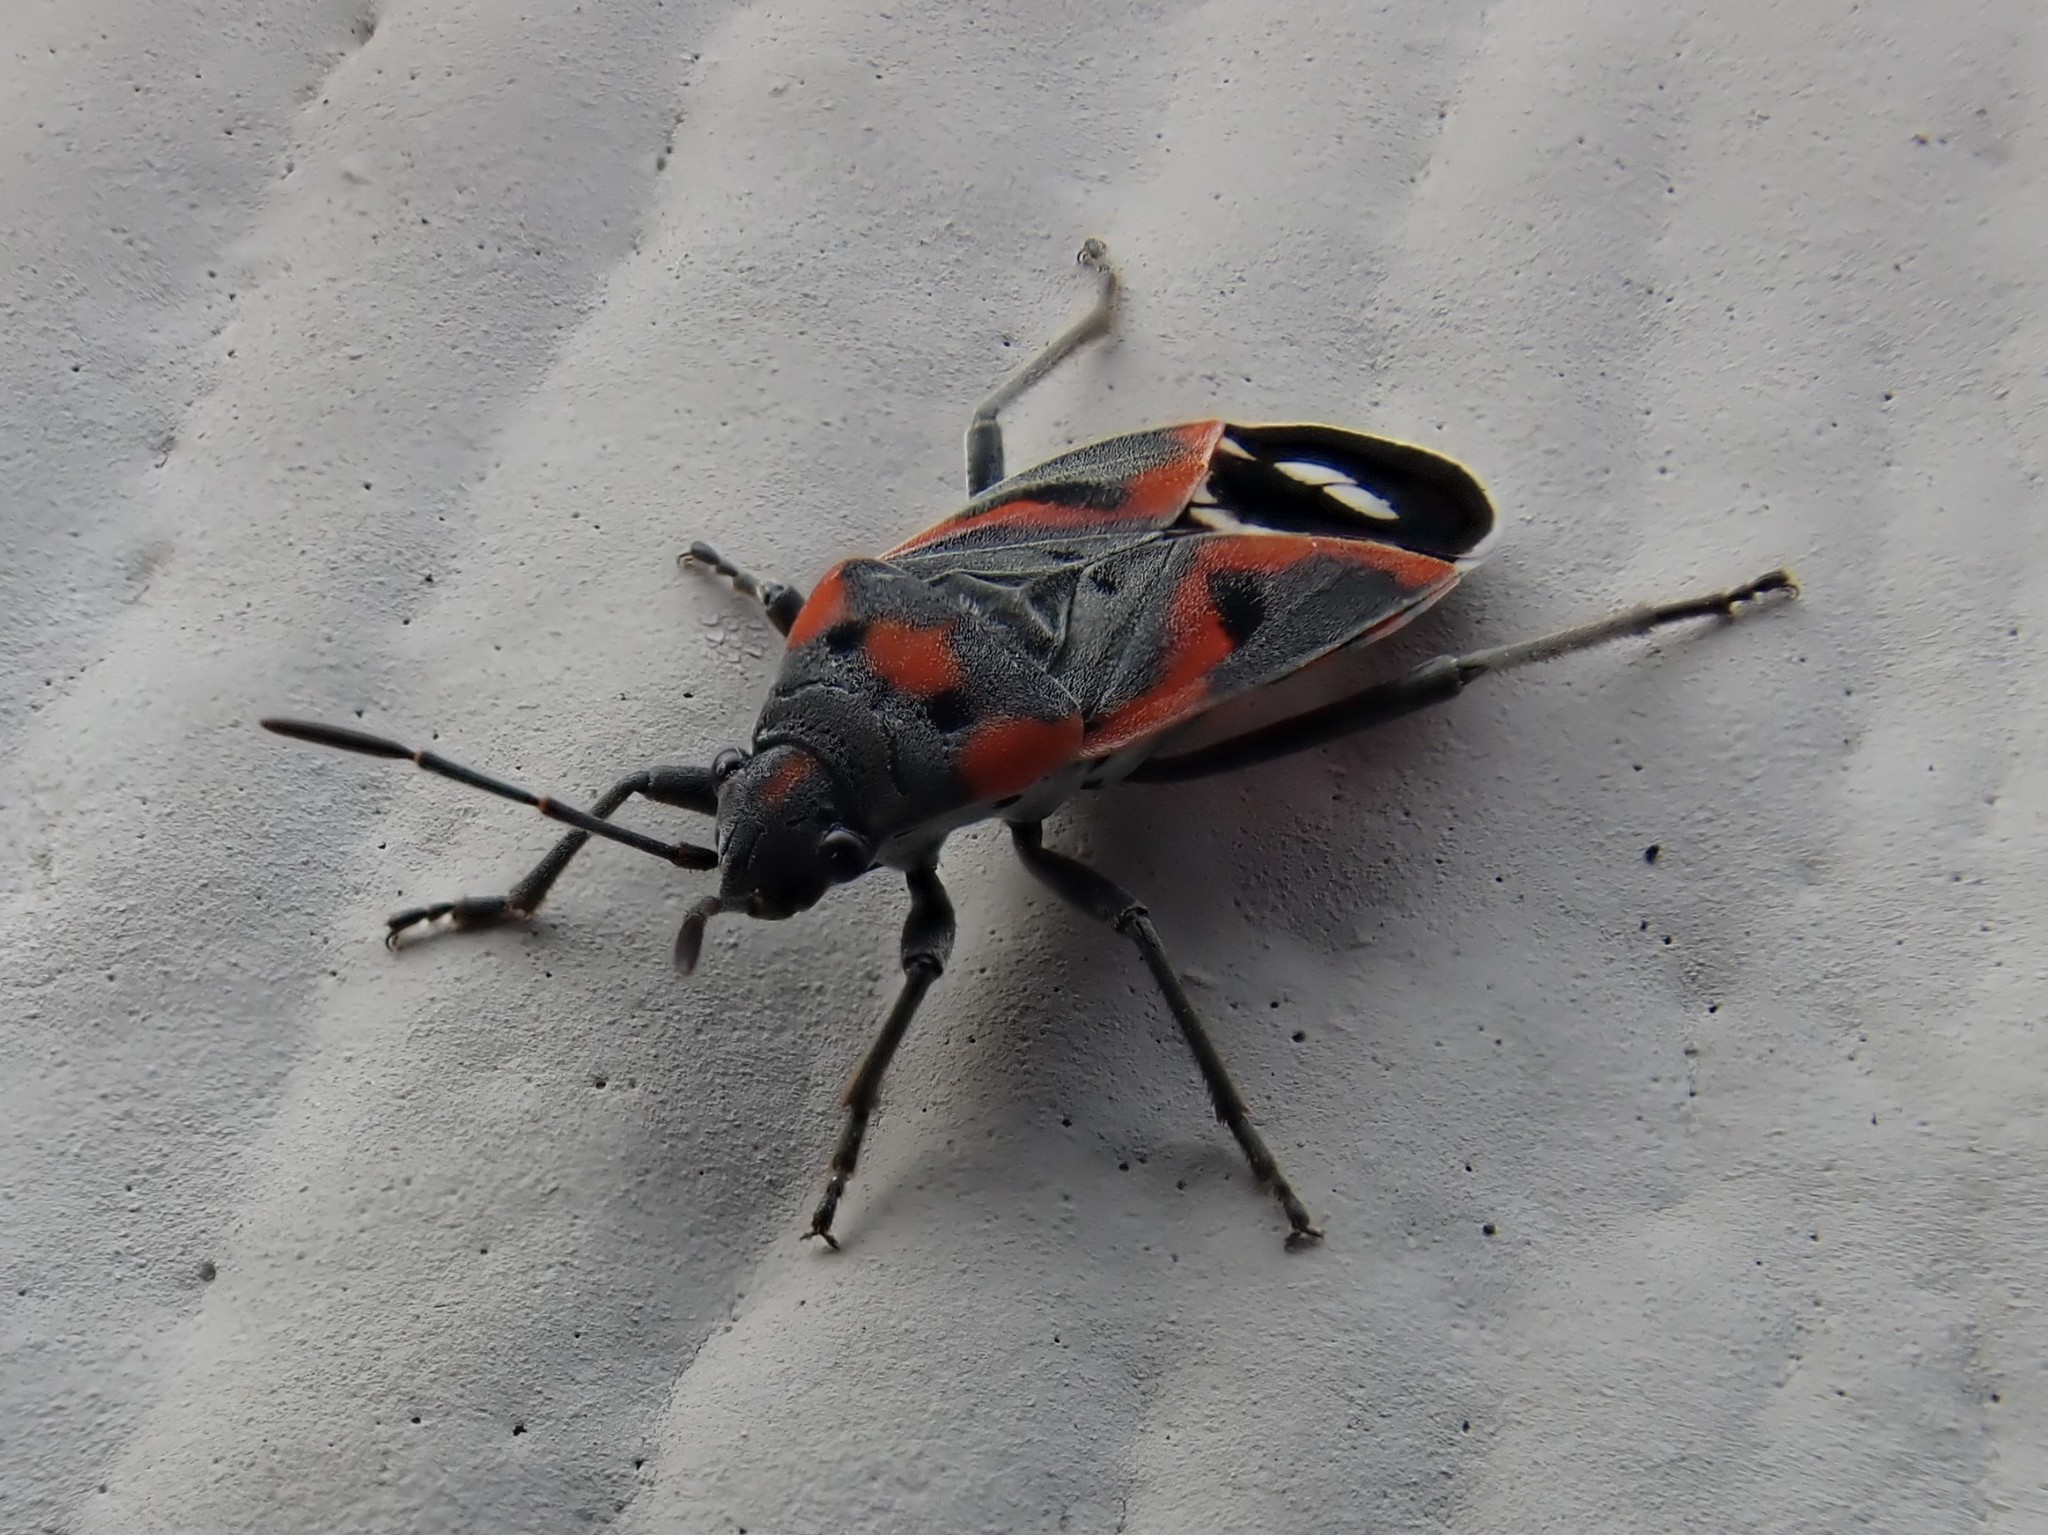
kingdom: Animalia
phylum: Arthropoda
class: Insecta
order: Hemiptera
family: Lygaeidae
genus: Lygaeus
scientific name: Lygaeus kalmii
